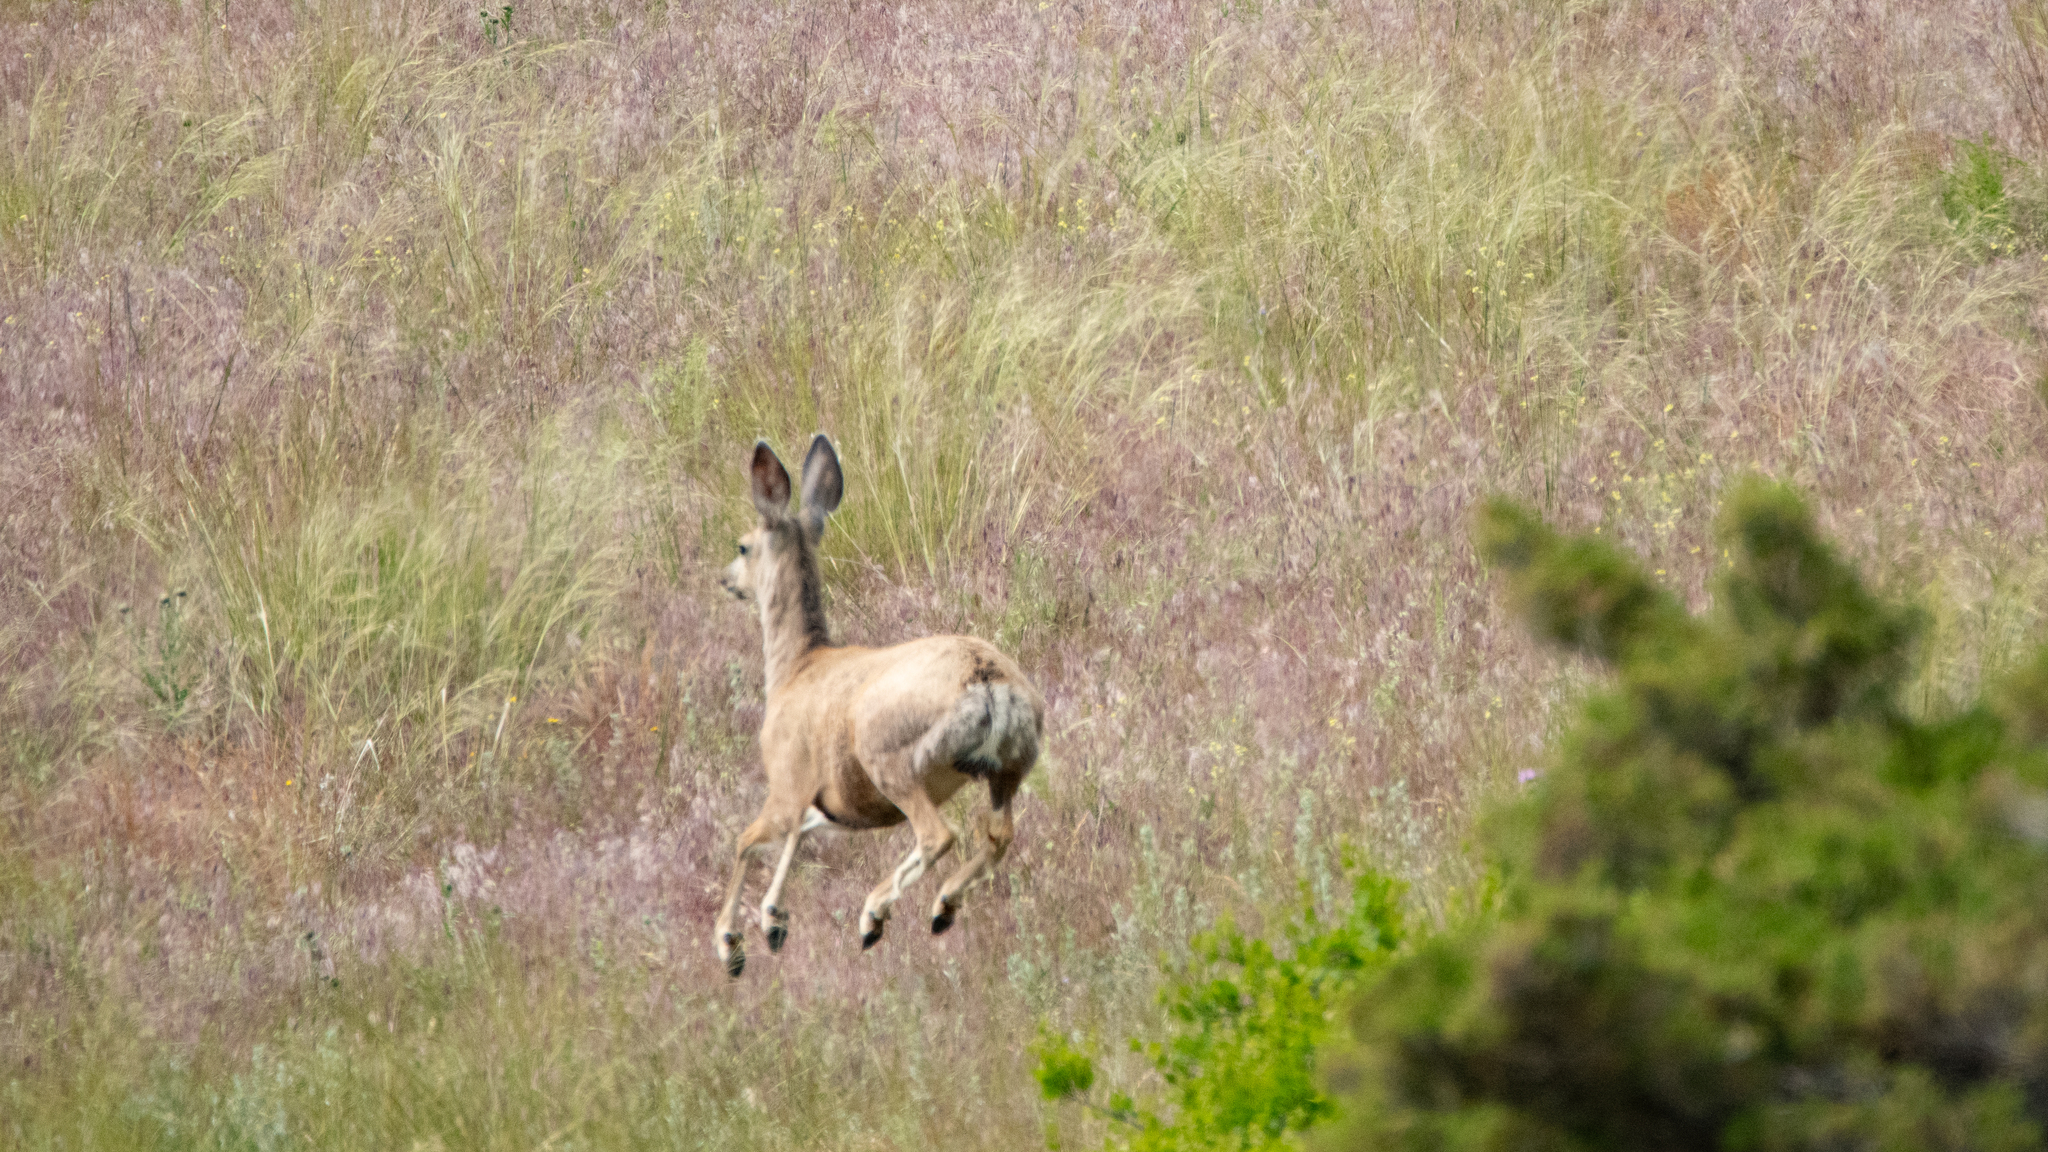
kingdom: Animalia
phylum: Chordata
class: Mammalia
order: Artiodactyla
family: Cervidae
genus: Odocoileus
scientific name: Odocoileus hemionus
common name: Mule deer
